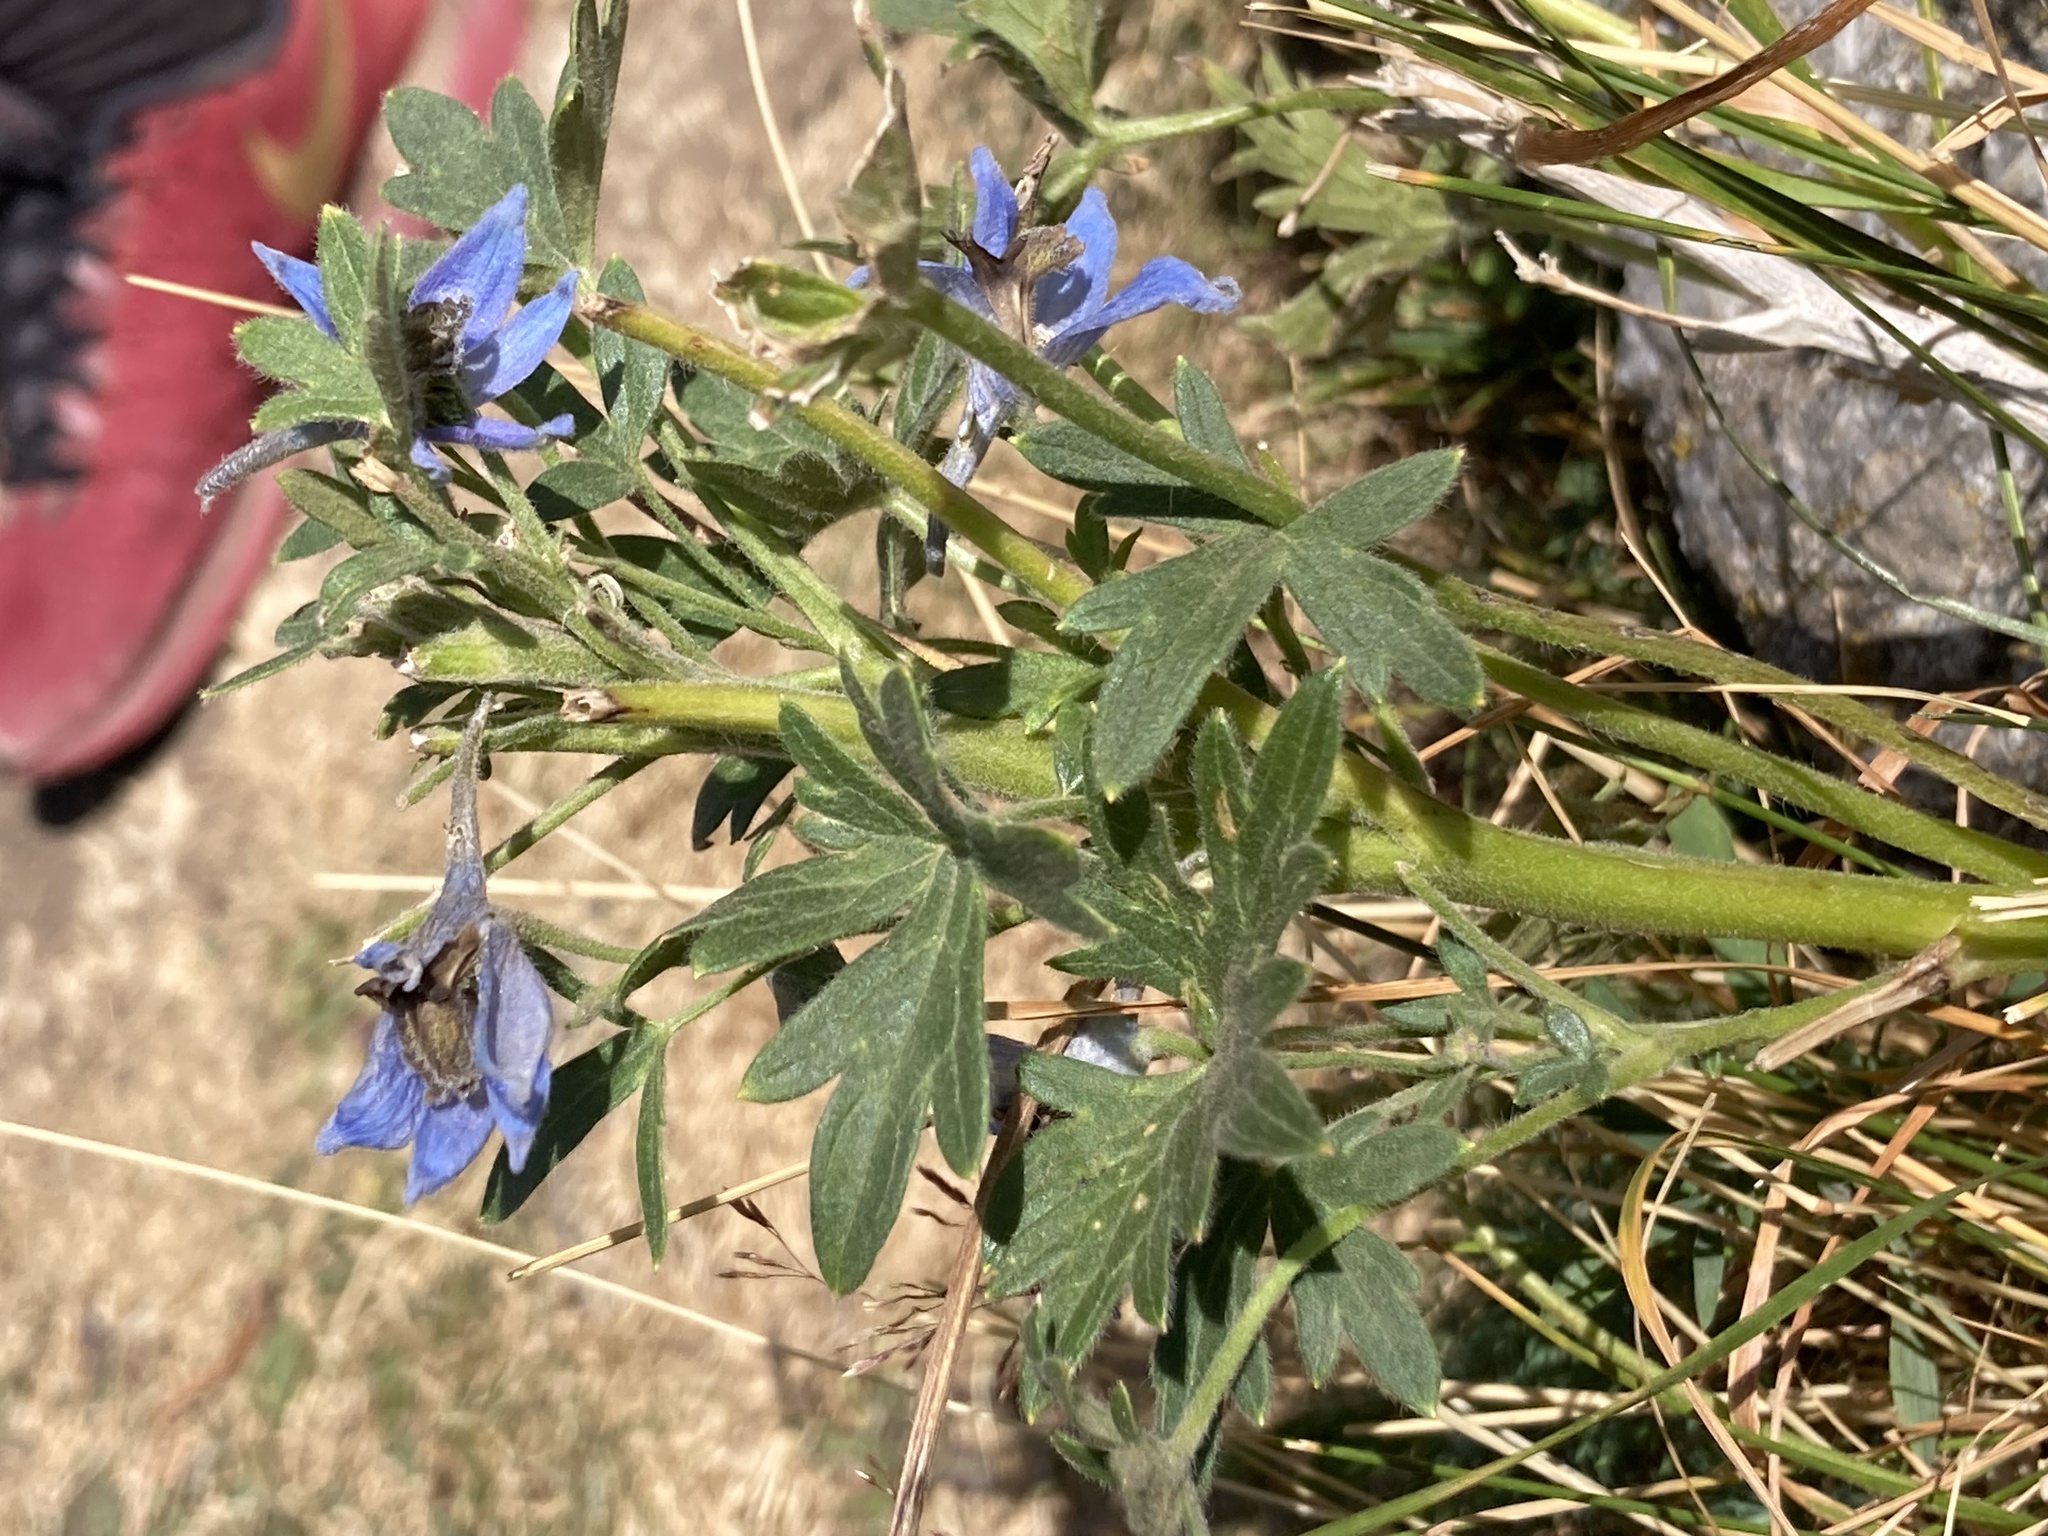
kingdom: Plantae
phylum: Tracheophyta
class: Magnoliopsida
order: Ranunculales
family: Ranunculaceae
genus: Delphinium
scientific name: Delphinium montanum
